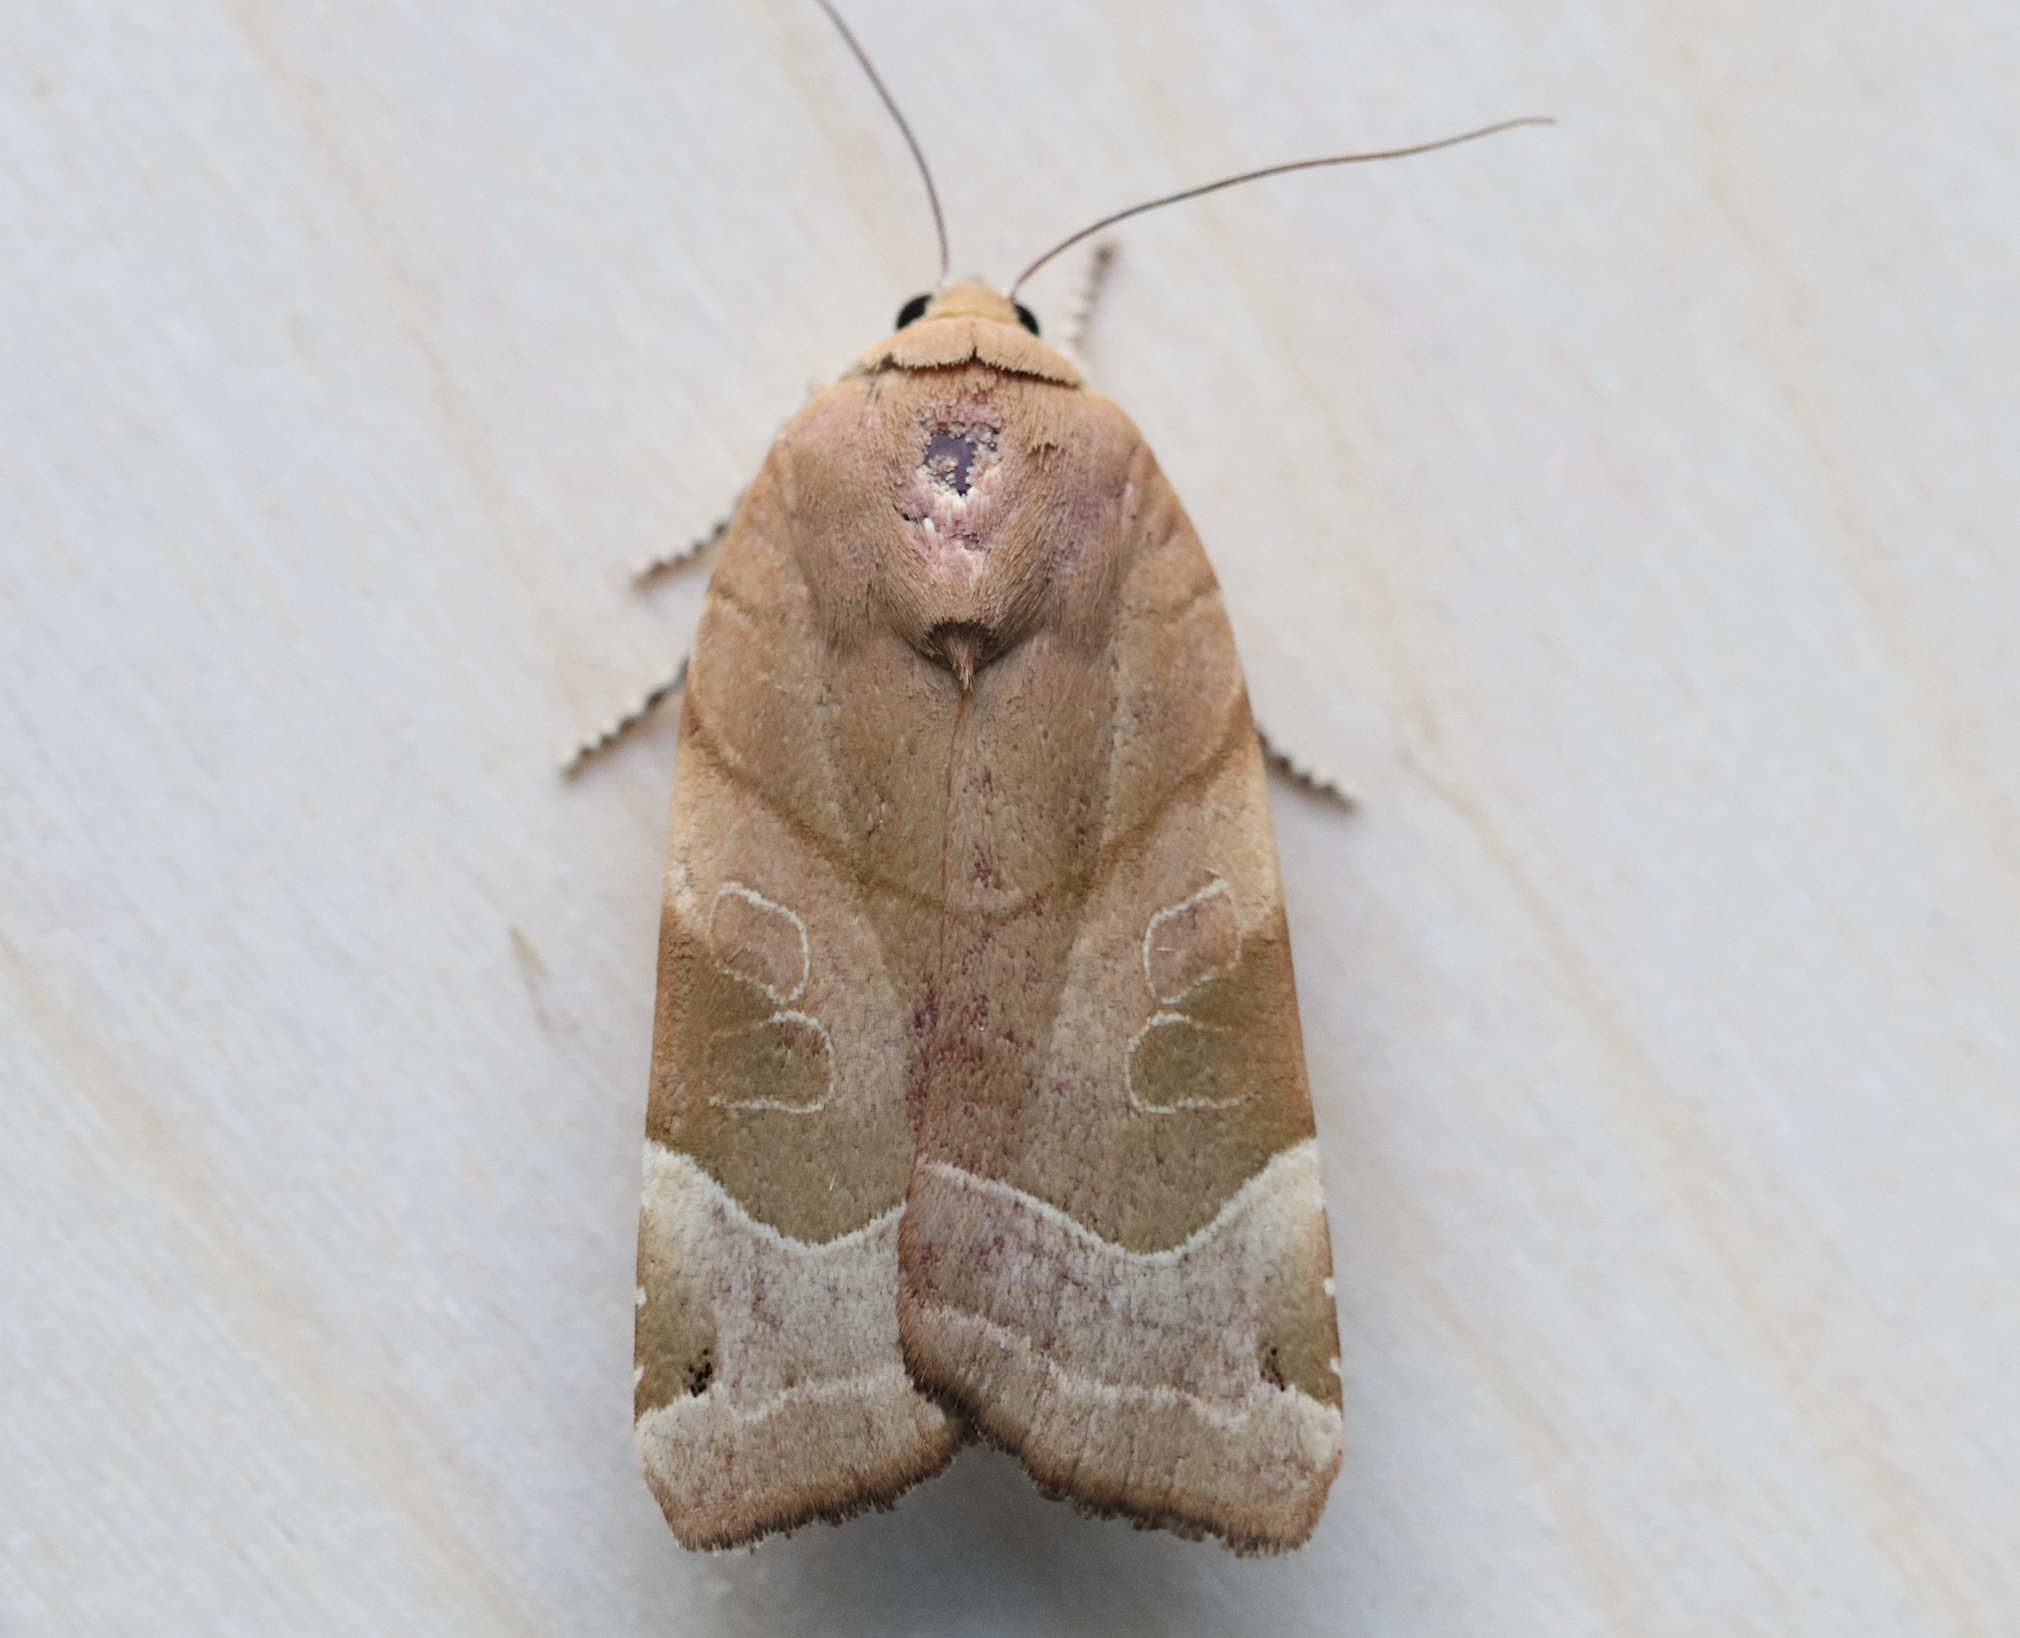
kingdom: Animalia
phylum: Arthropoda
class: Insecta
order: Lepidoptera
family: Noctuidae
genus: Noctua
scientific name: Noctua fimbriata
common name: Broad-bordered yellow underwing
